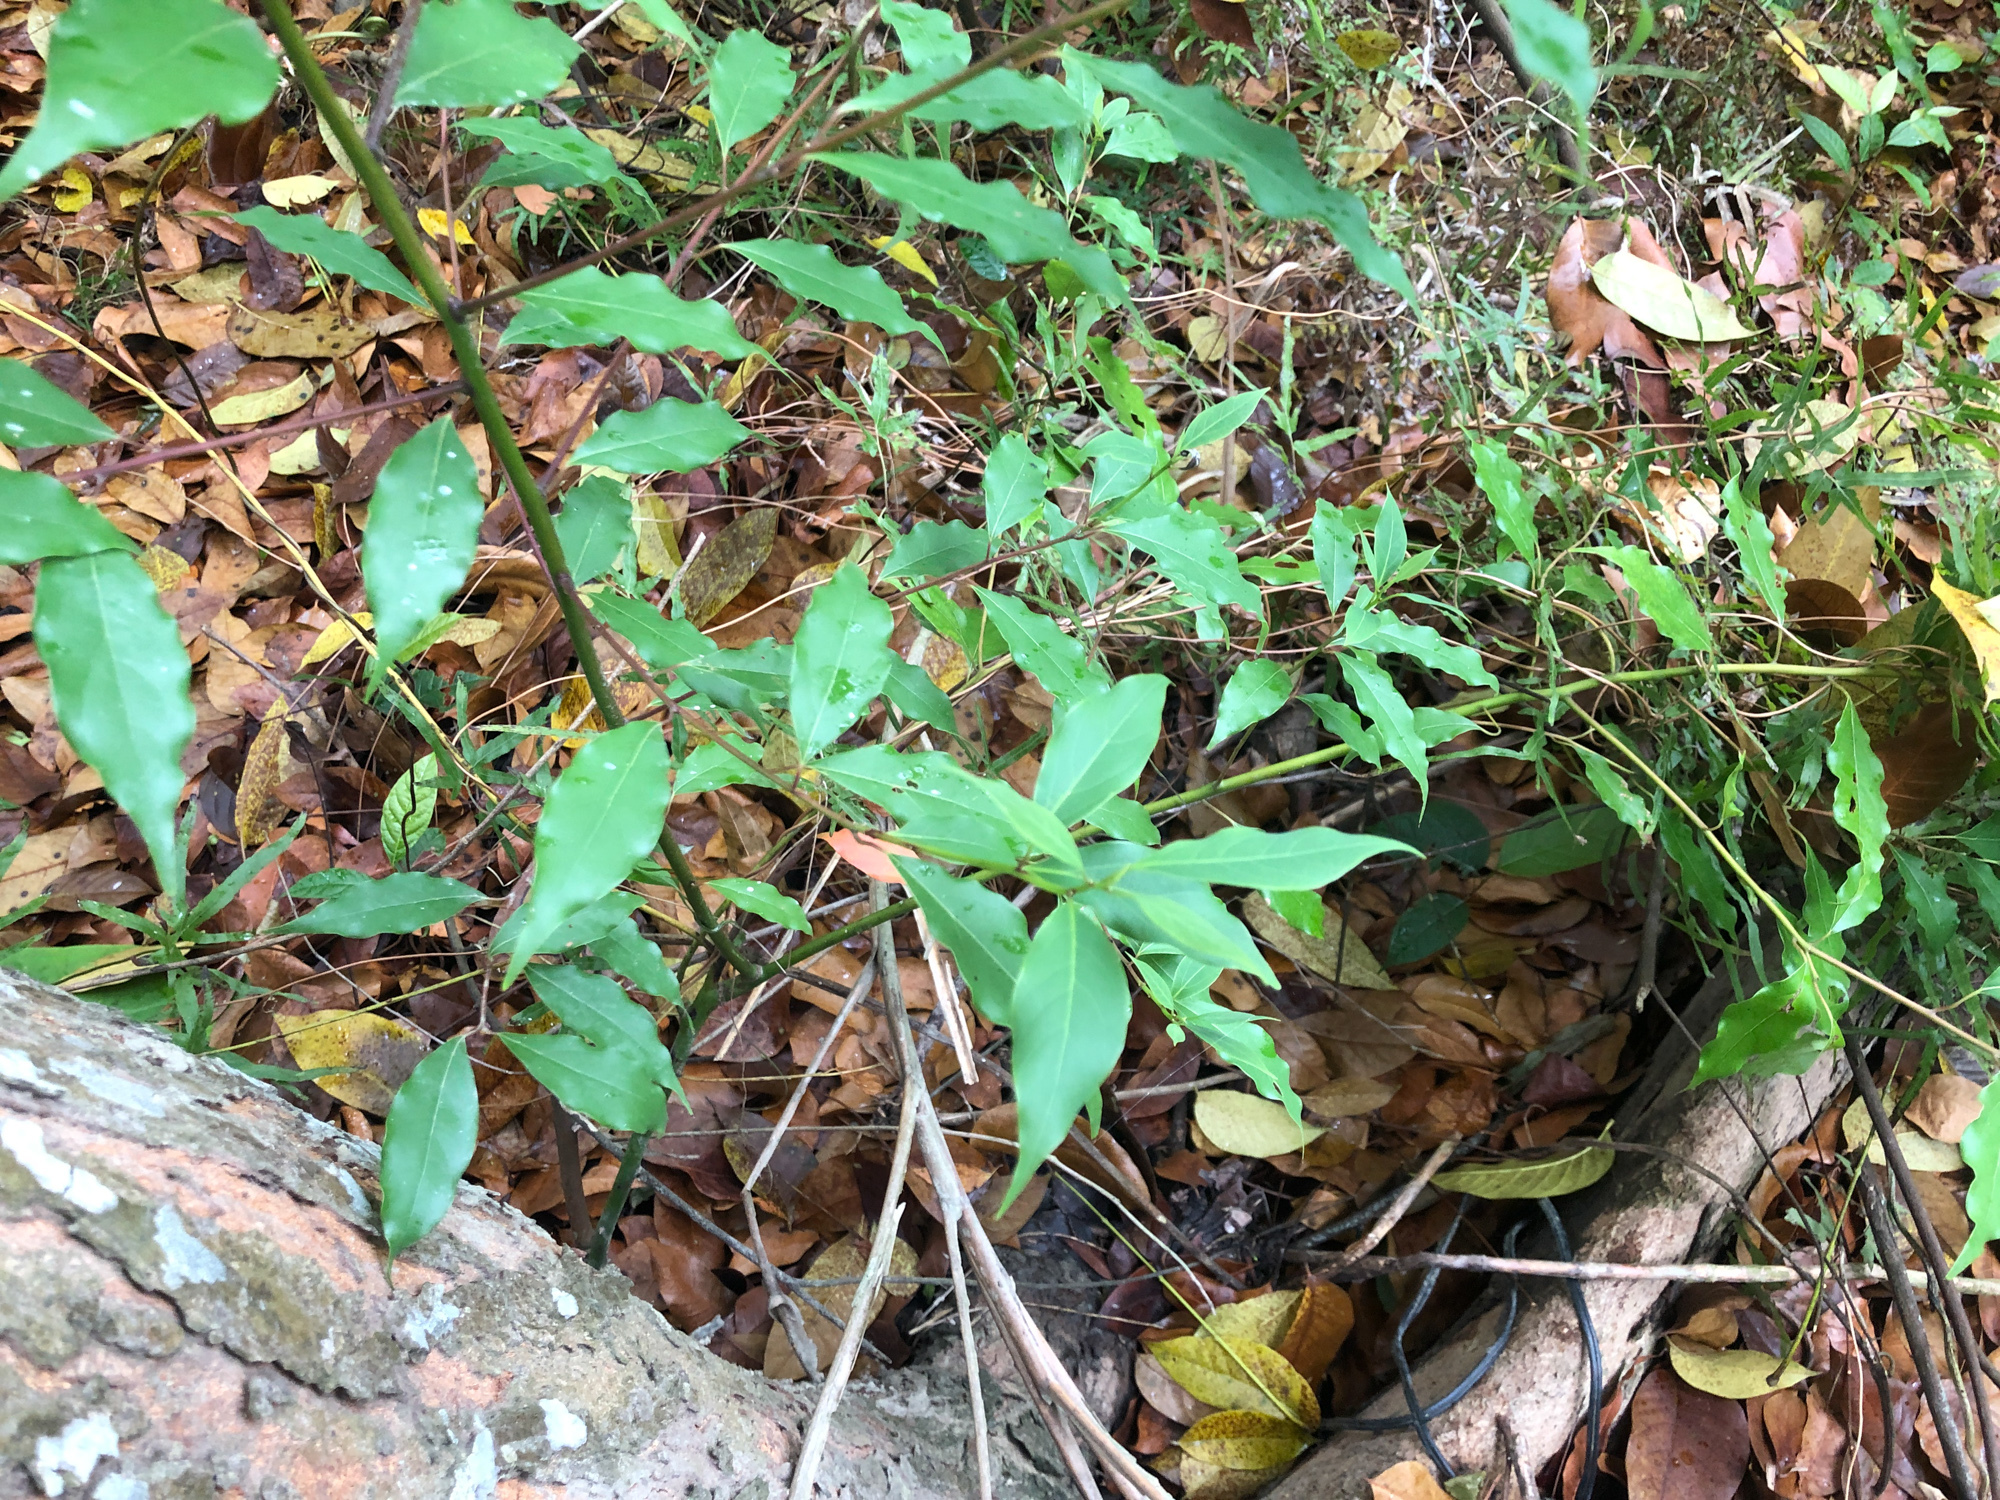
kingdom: Plantae
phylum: Tracheophyta
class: Magnoliopsida
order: Laurales
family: Lauraceae
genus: Cinnamomum
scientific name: Cinnamomum camphora
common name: Camphortree
